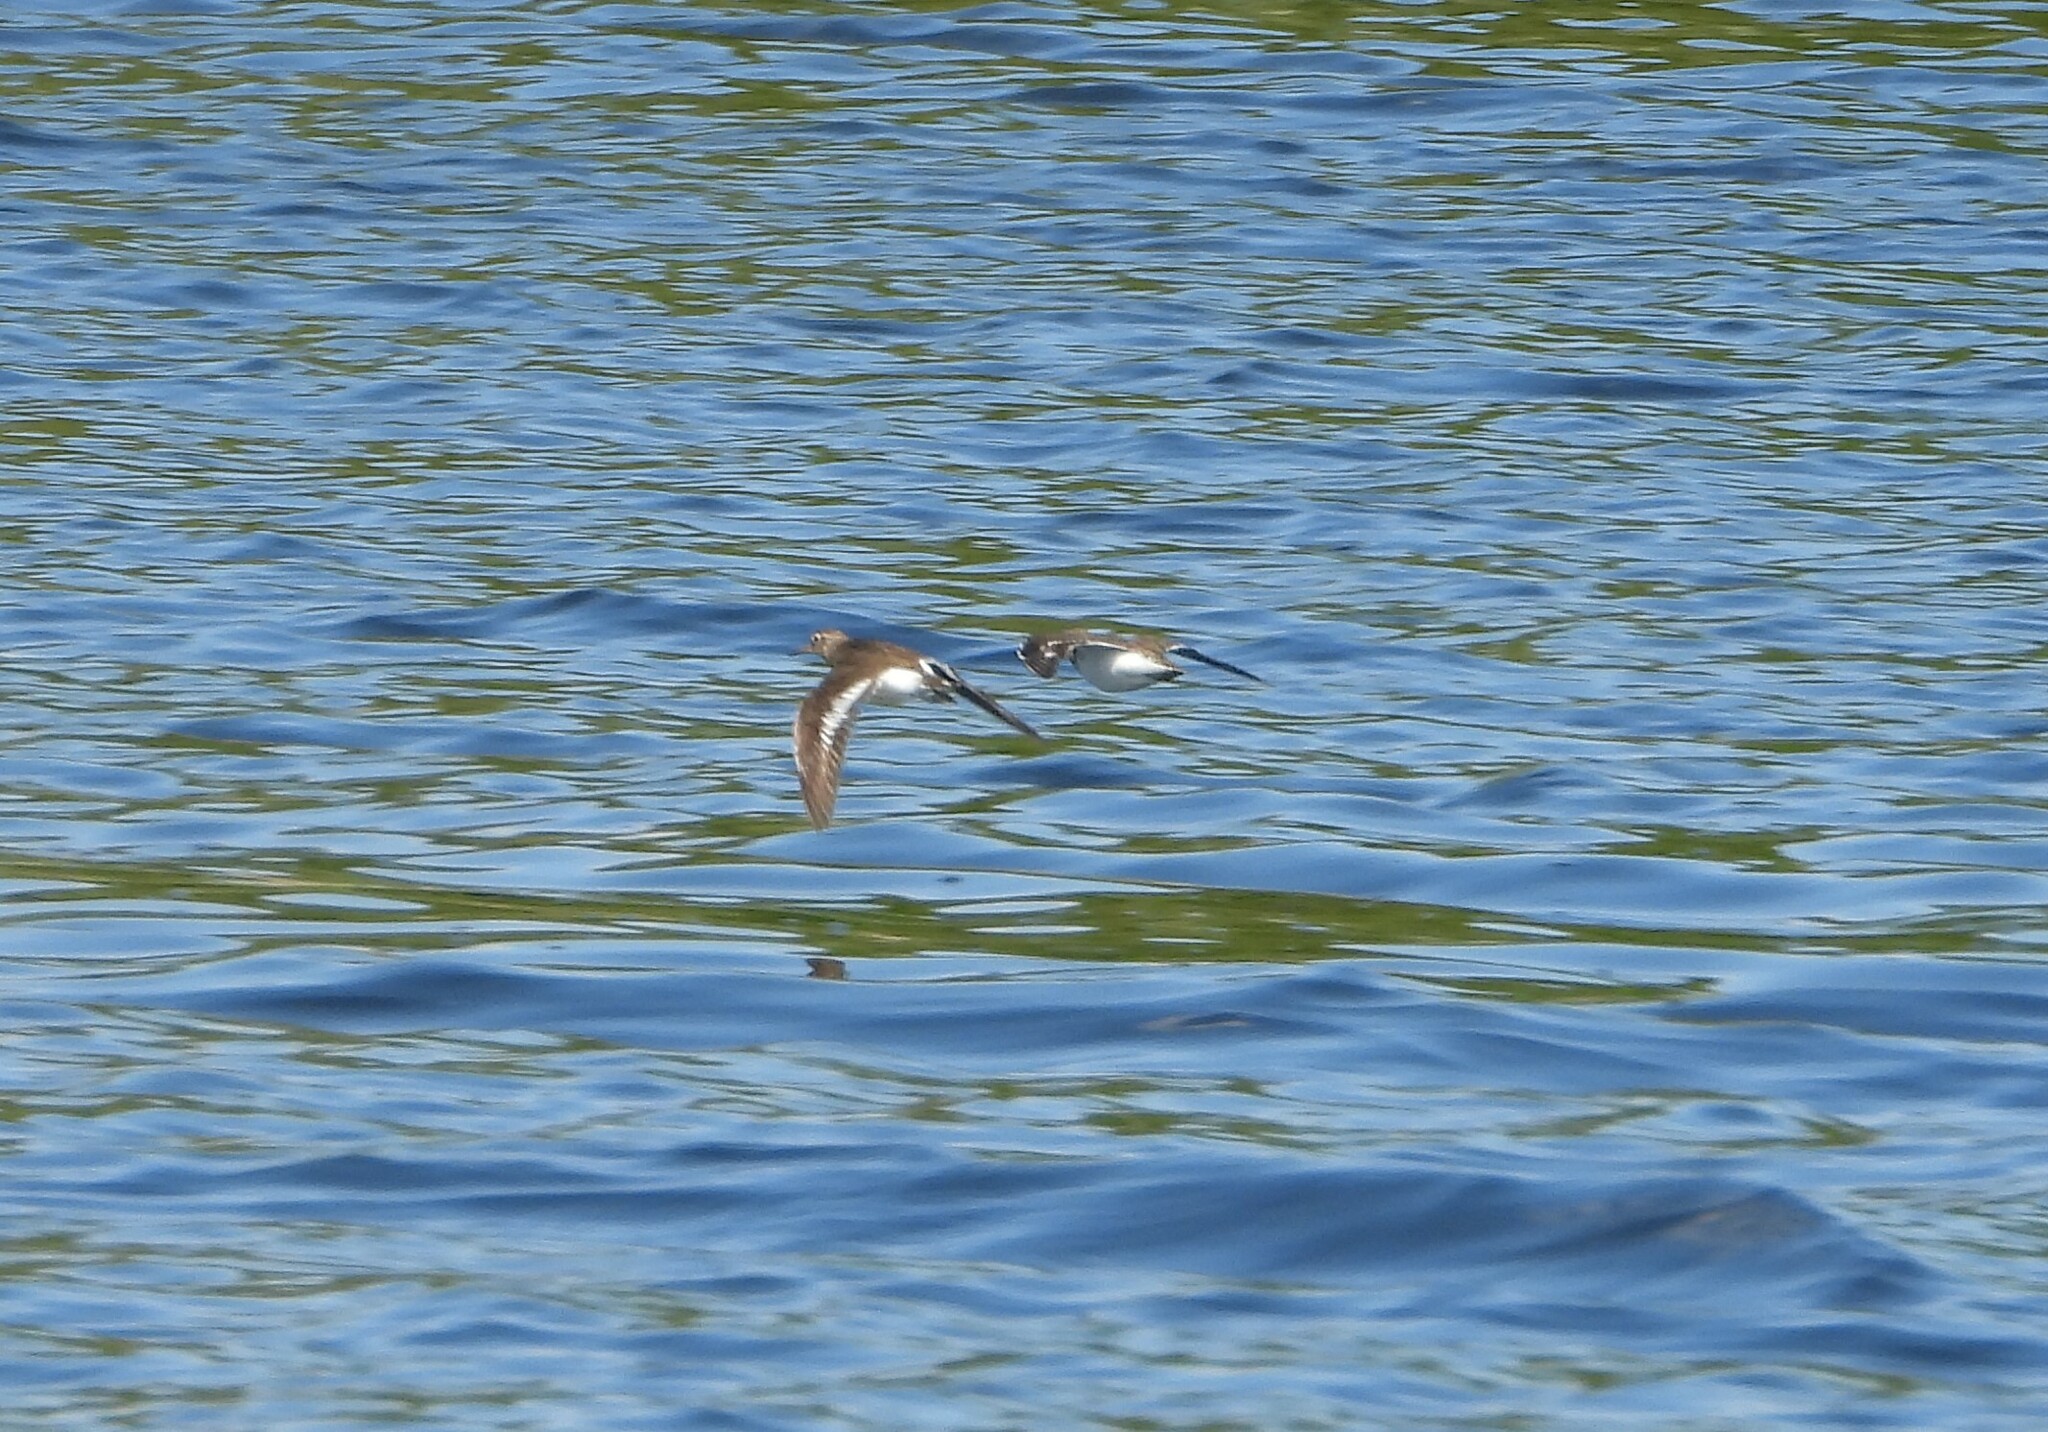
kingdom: Animalia
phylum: Chordata
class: Aves
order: Charadriiformes
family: Scolopacidae
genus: Actitis
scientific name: Actitis hypoleucos
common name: Common sandpiper
